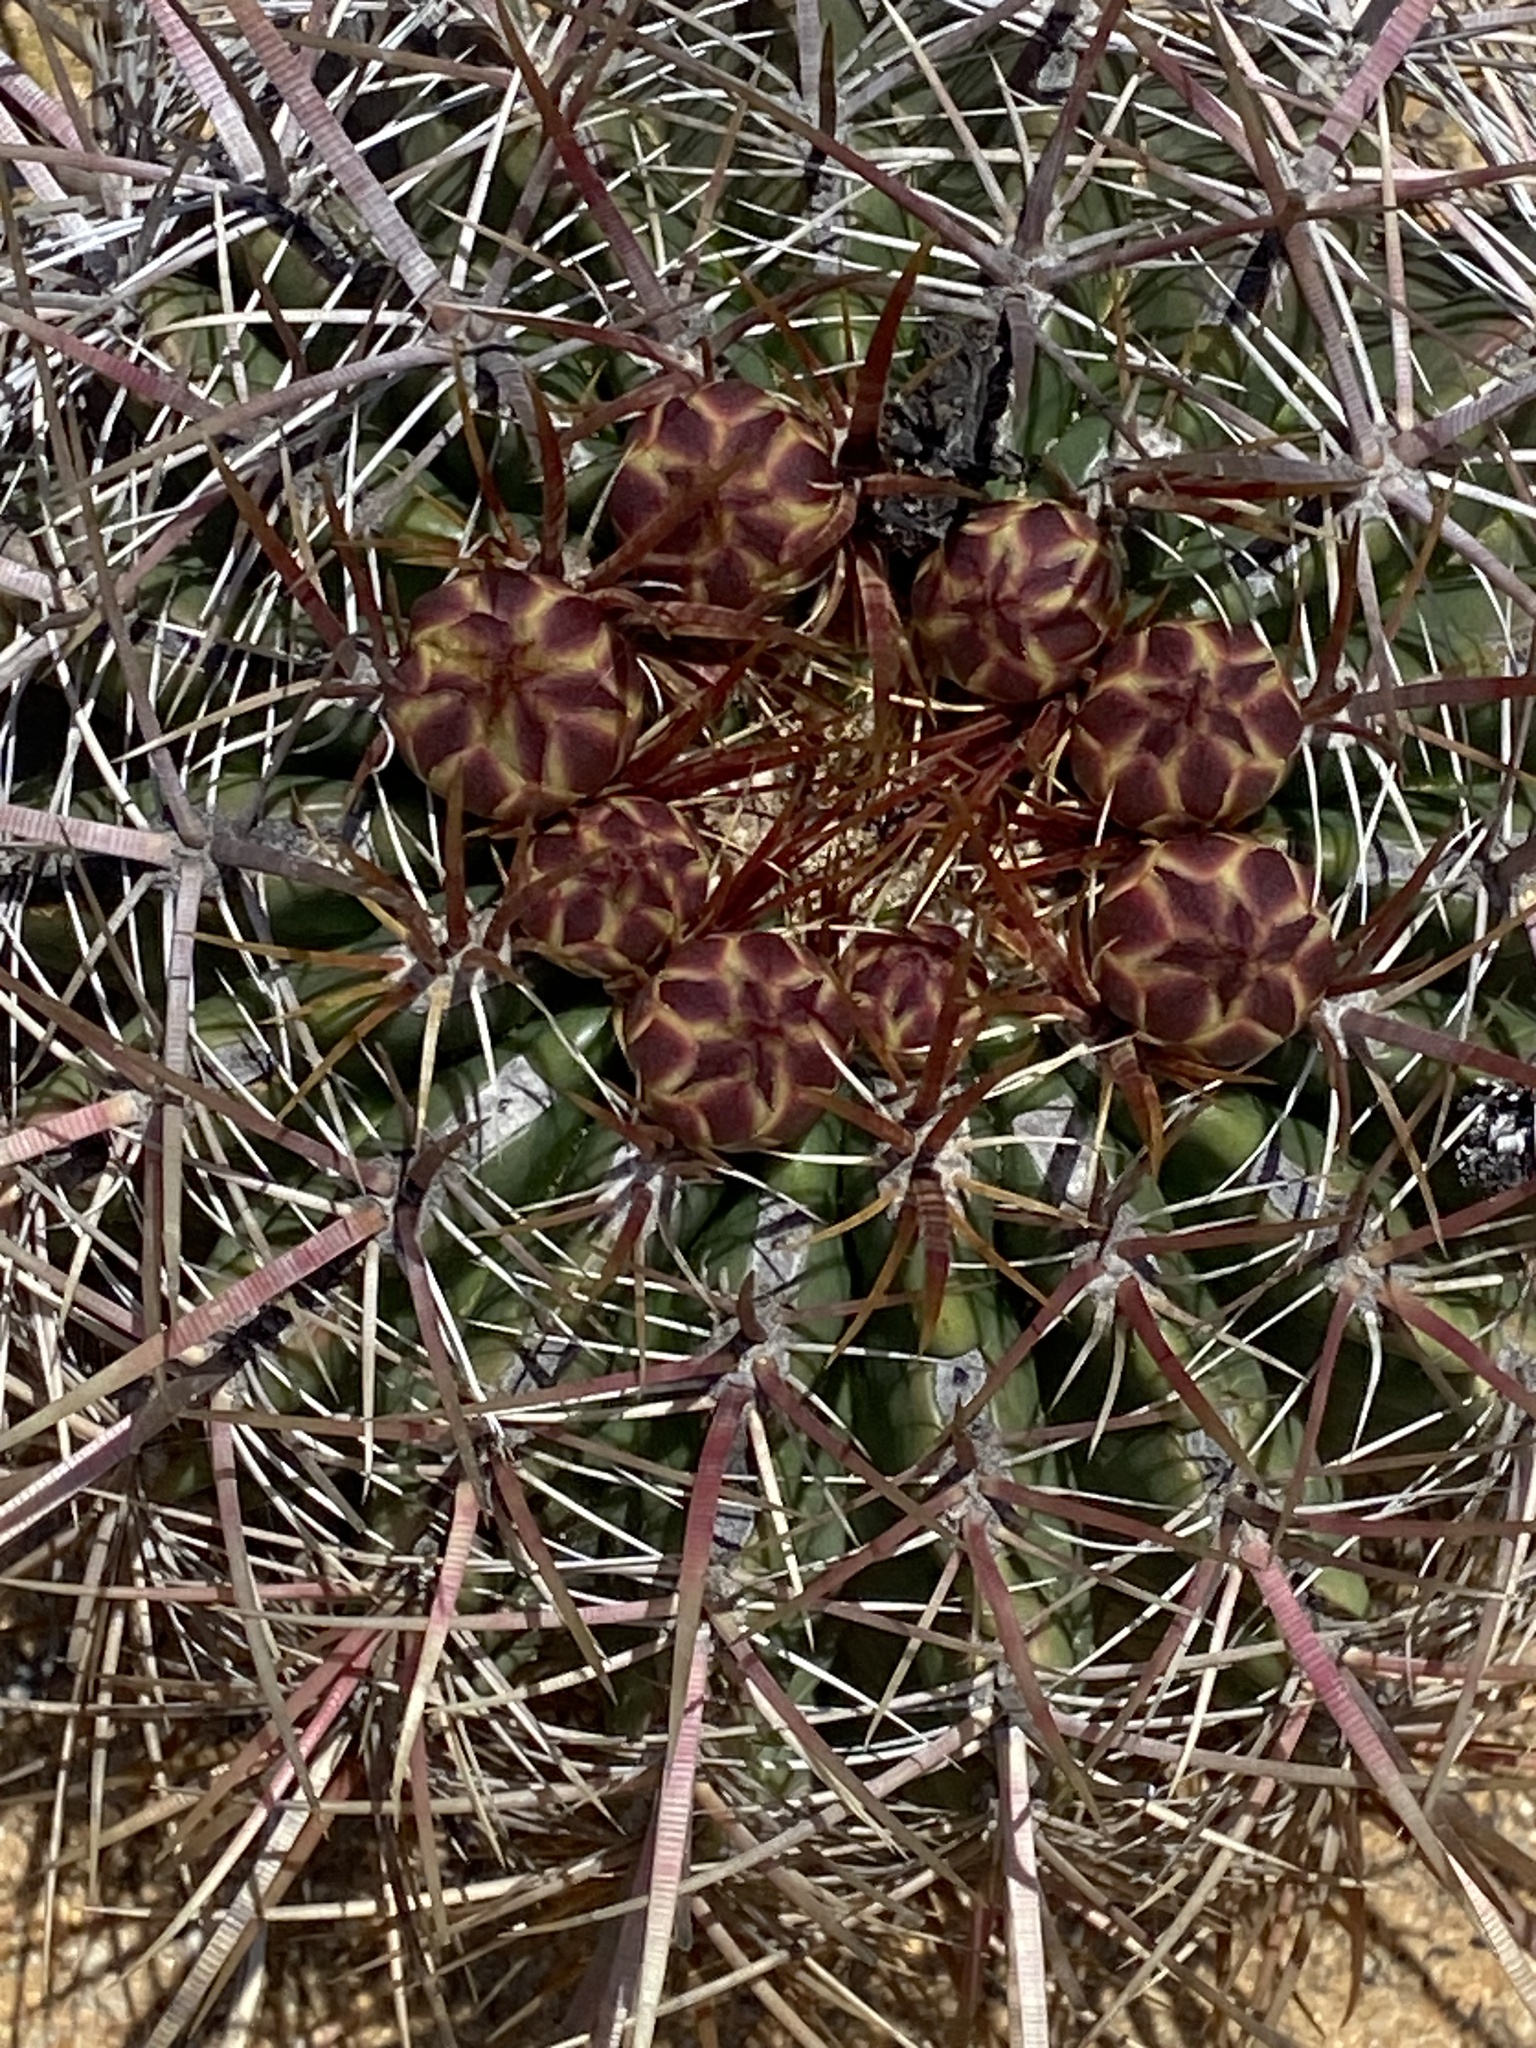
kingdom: Plantae
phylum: Tracheophyta
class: Magnoliopsida
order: Caryophyllales
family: Cactaceae
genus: Ferocactus
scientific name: Ferocactus viridescens
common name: San diego barrel cactus
